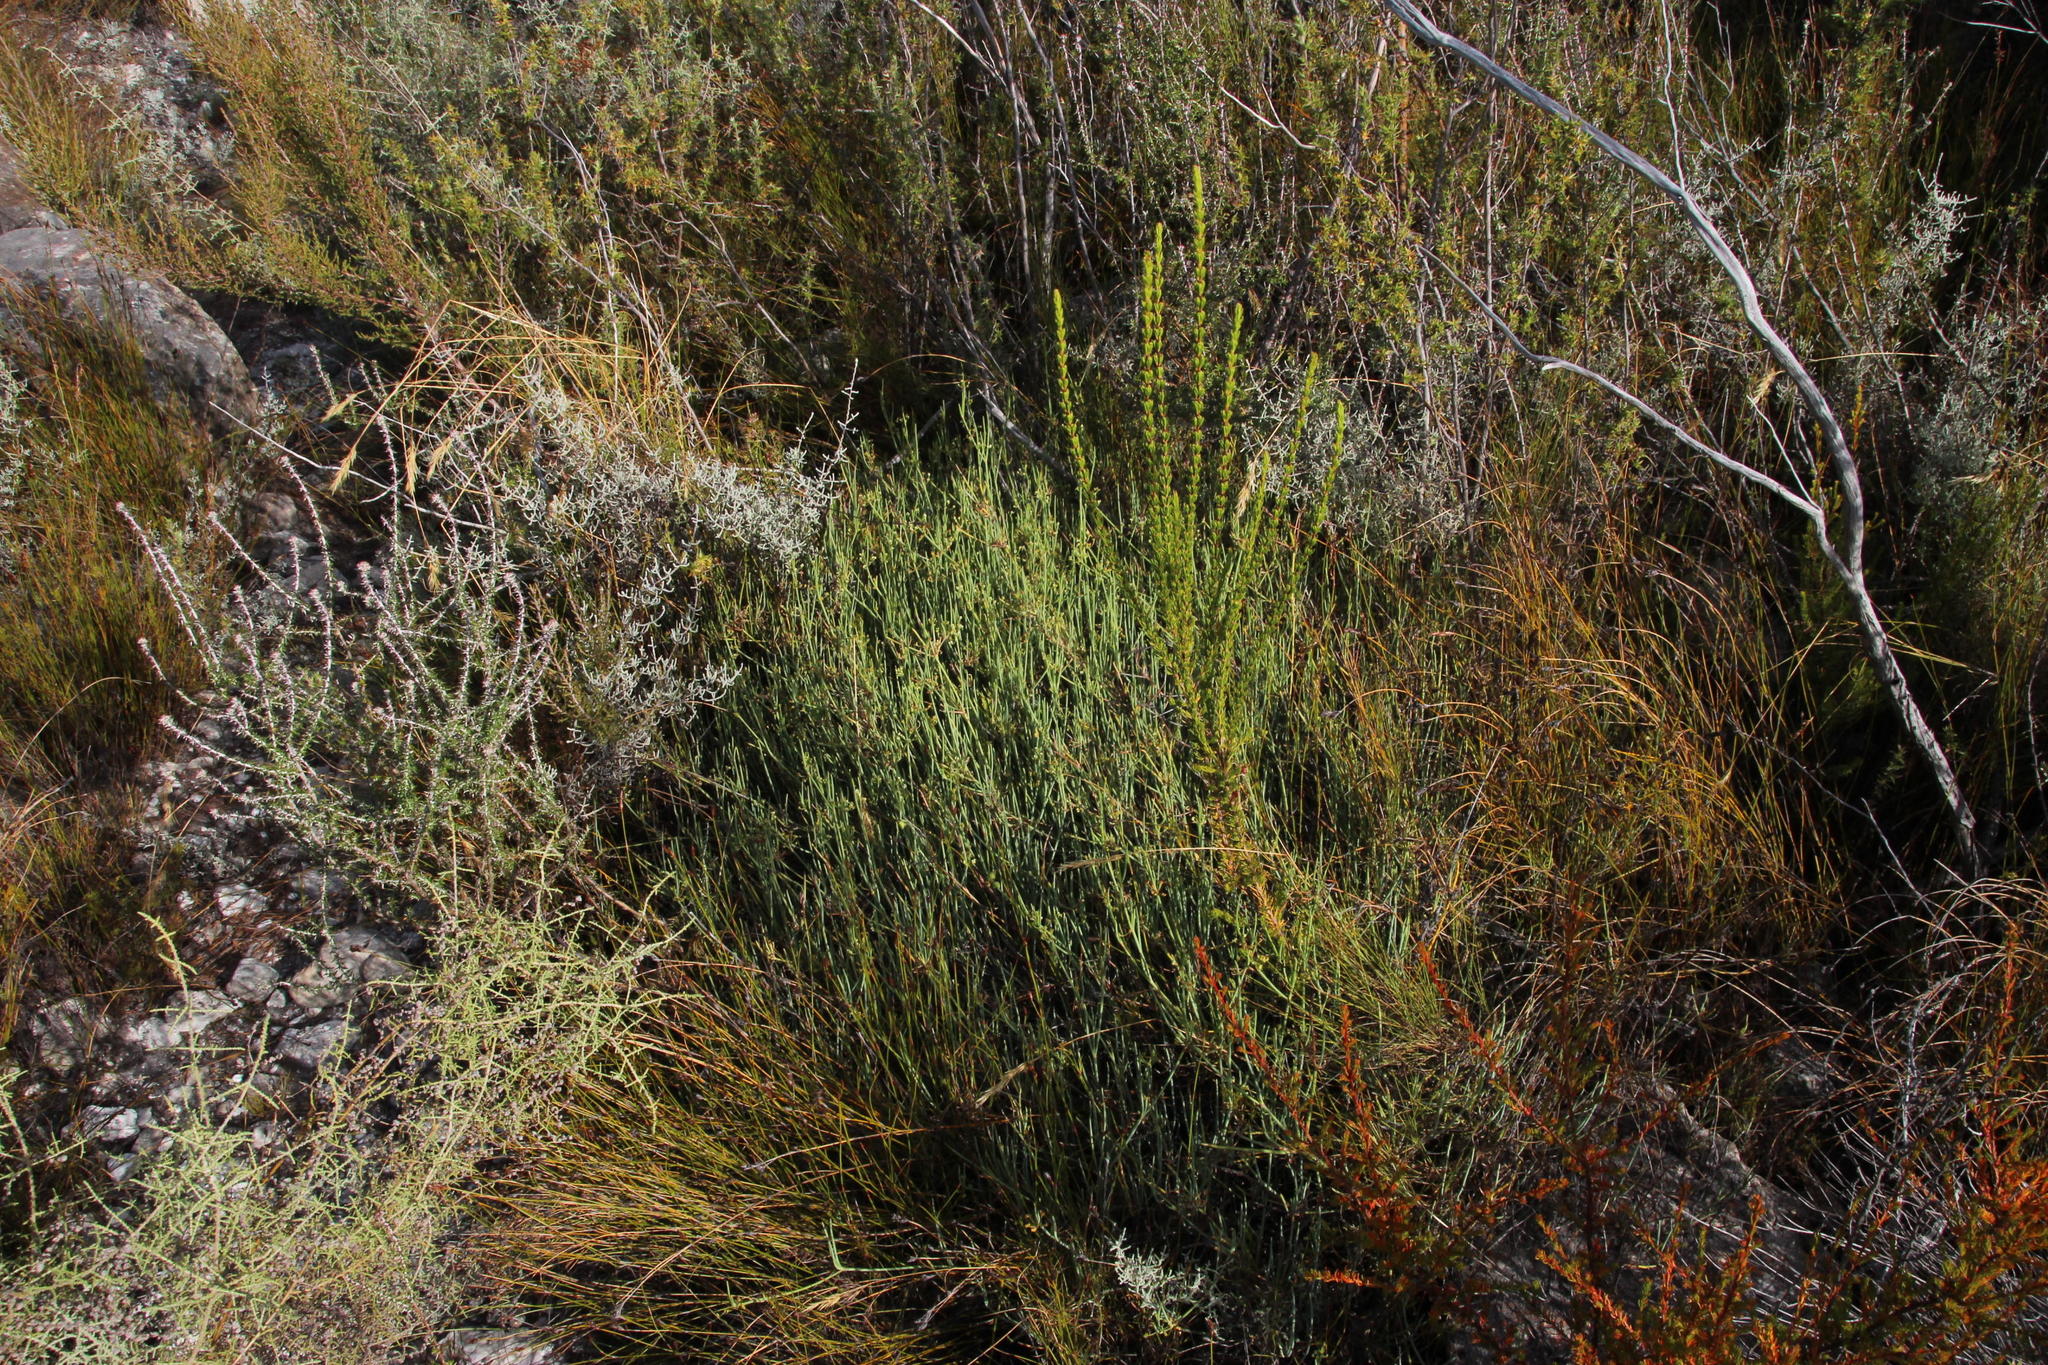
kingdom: Plantae
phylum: Tracheophyta
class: Magnoliopsida
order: Apiales
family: Apiaceae
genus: Centella
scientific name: Centella glauca
